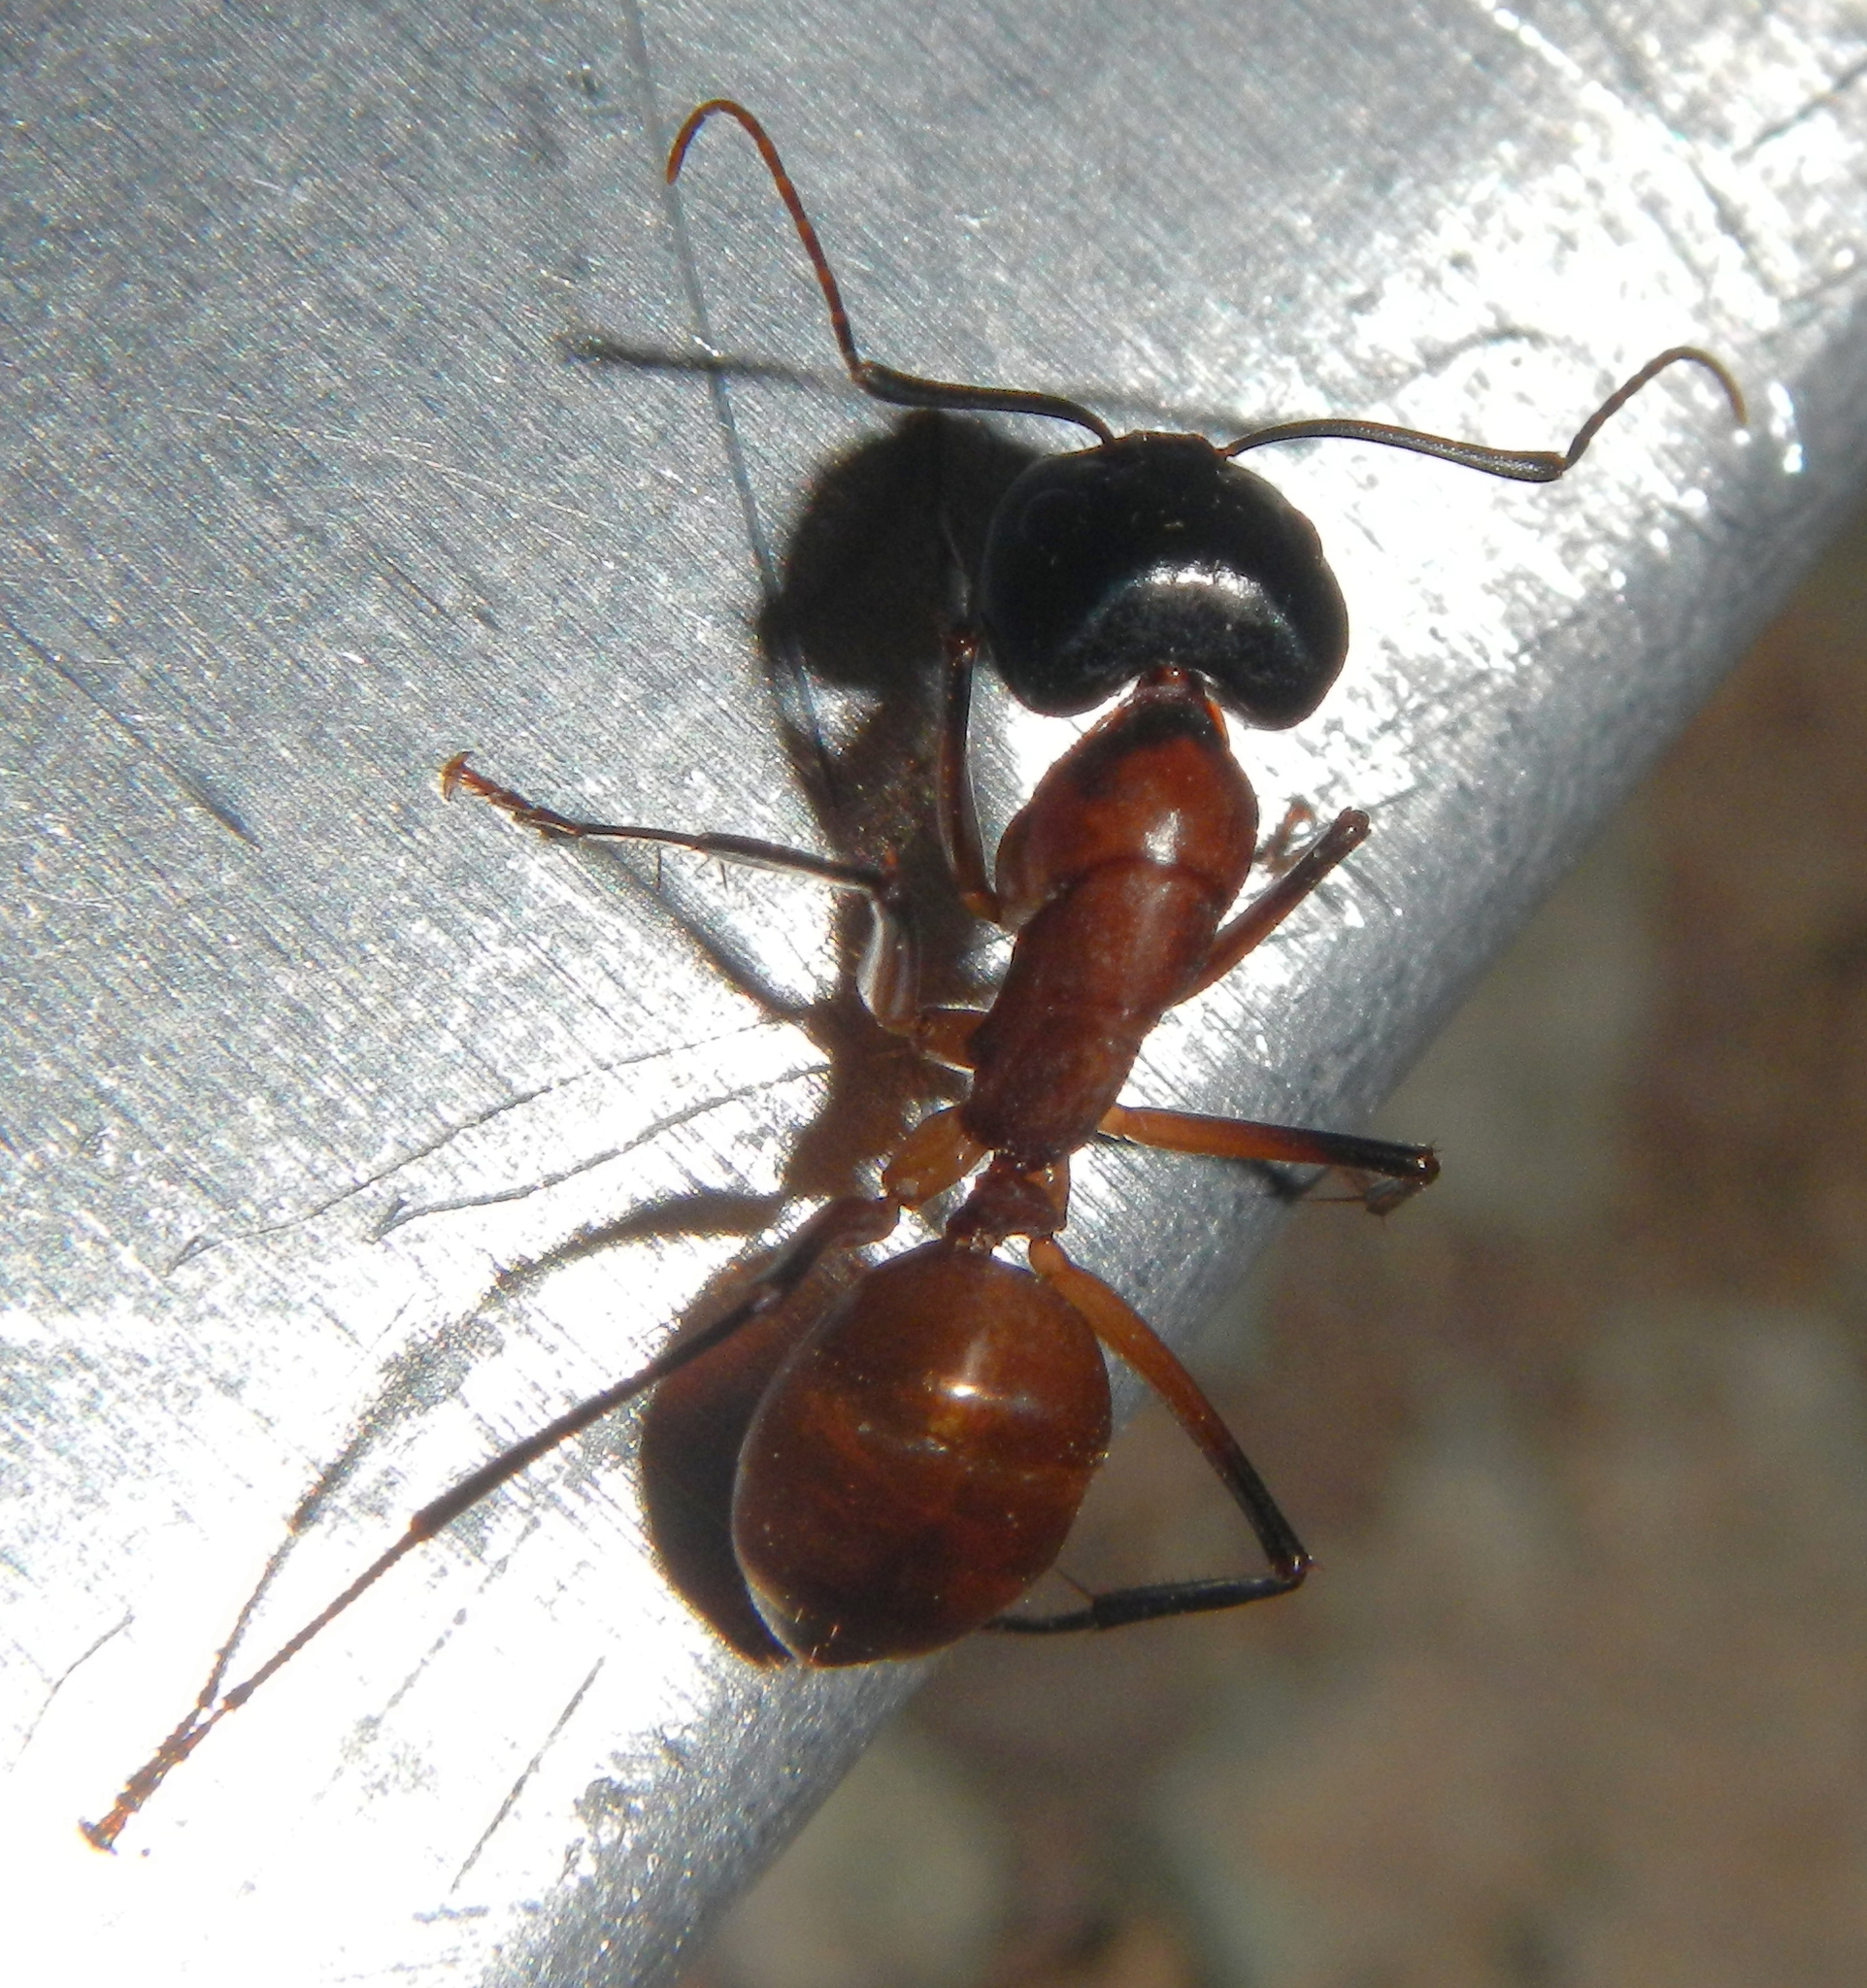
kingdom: Animalia
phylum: Arthropoda
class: Insecta
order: Hymenoptera
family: Formicidae
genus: Camponotus
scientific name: Camponotus ocreatus
